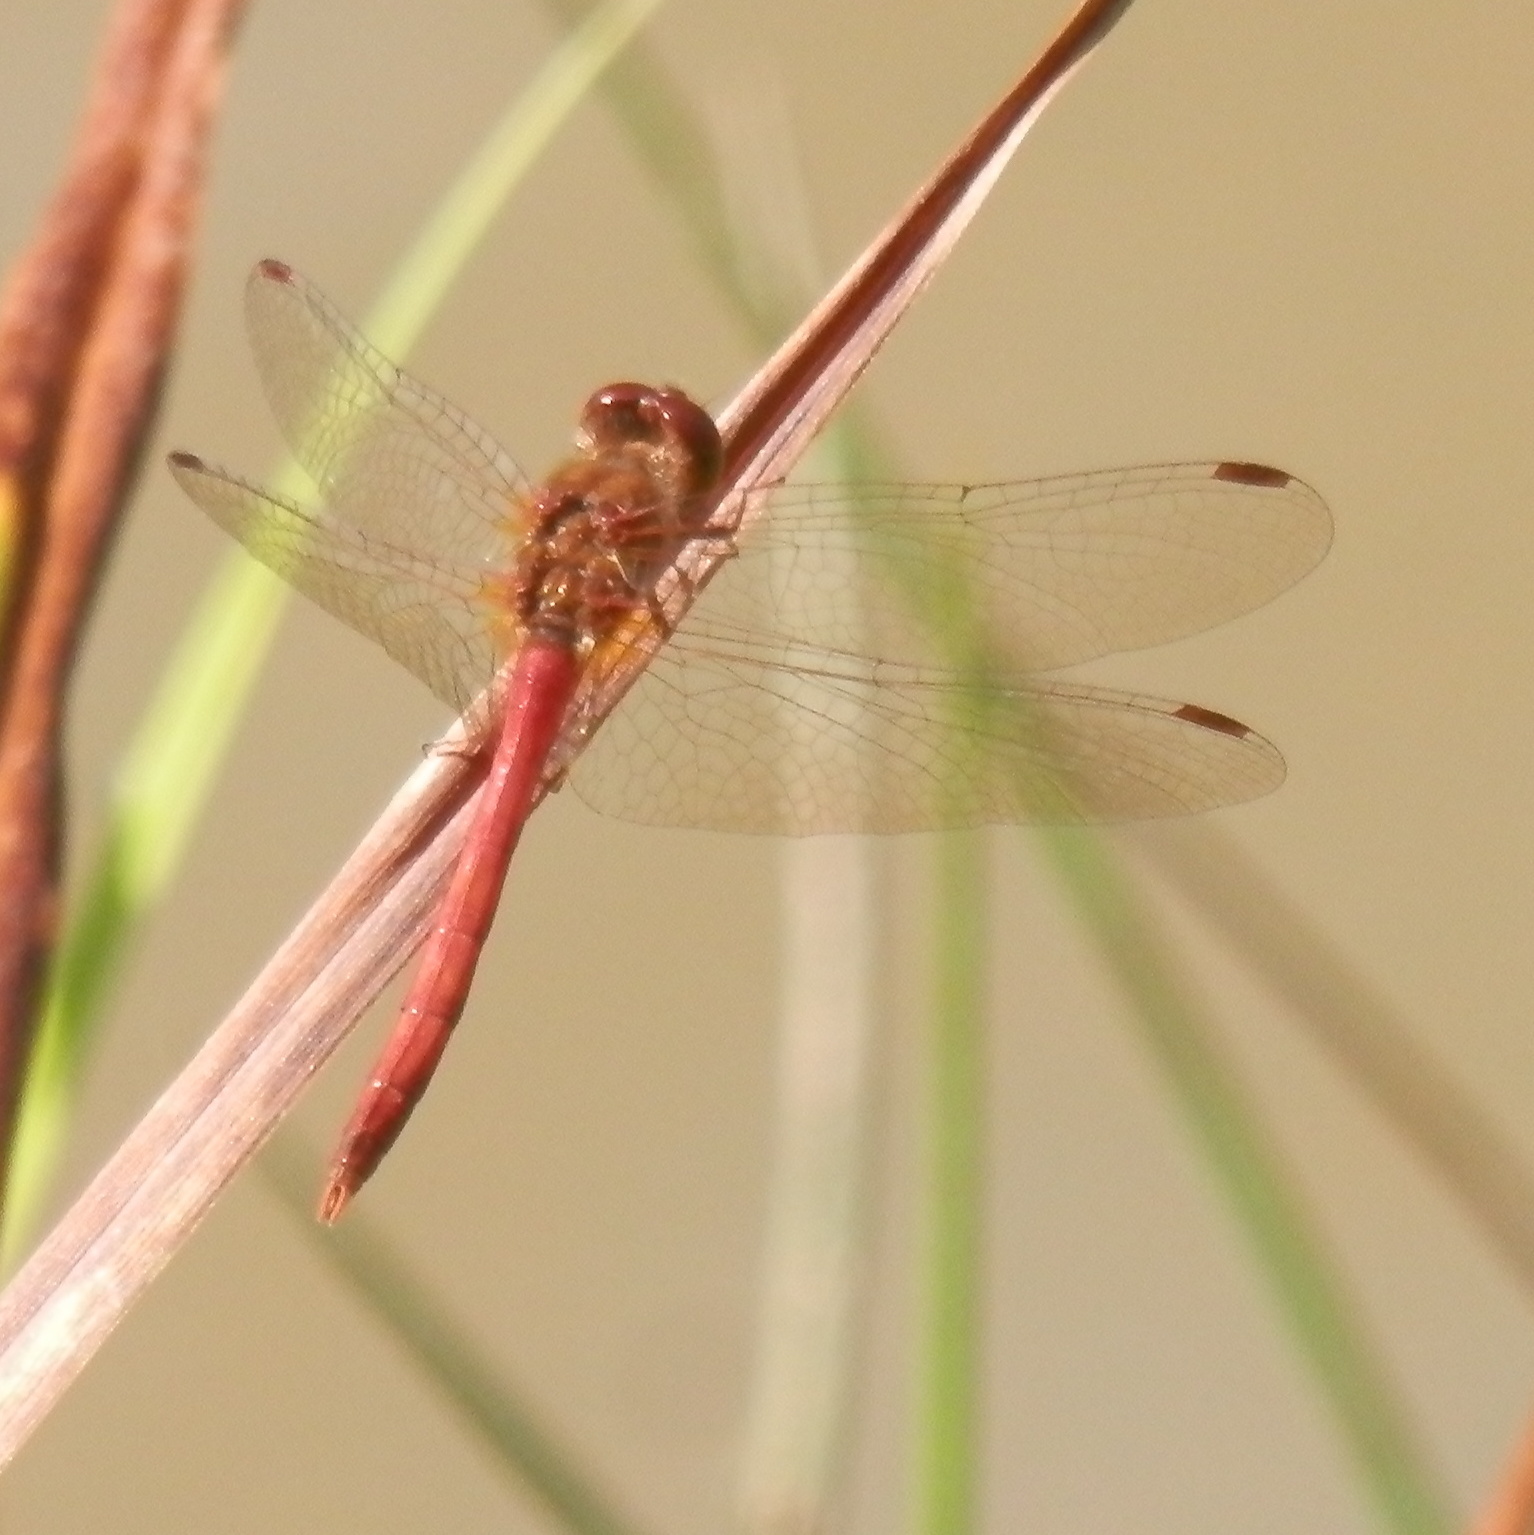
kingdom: Animalia
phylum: Arthropoda
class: Insecta
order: Odonata
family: Libellulidae
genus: Sympetrum
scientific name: Sympetrum vicinum
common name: Autumn meadowhawk
